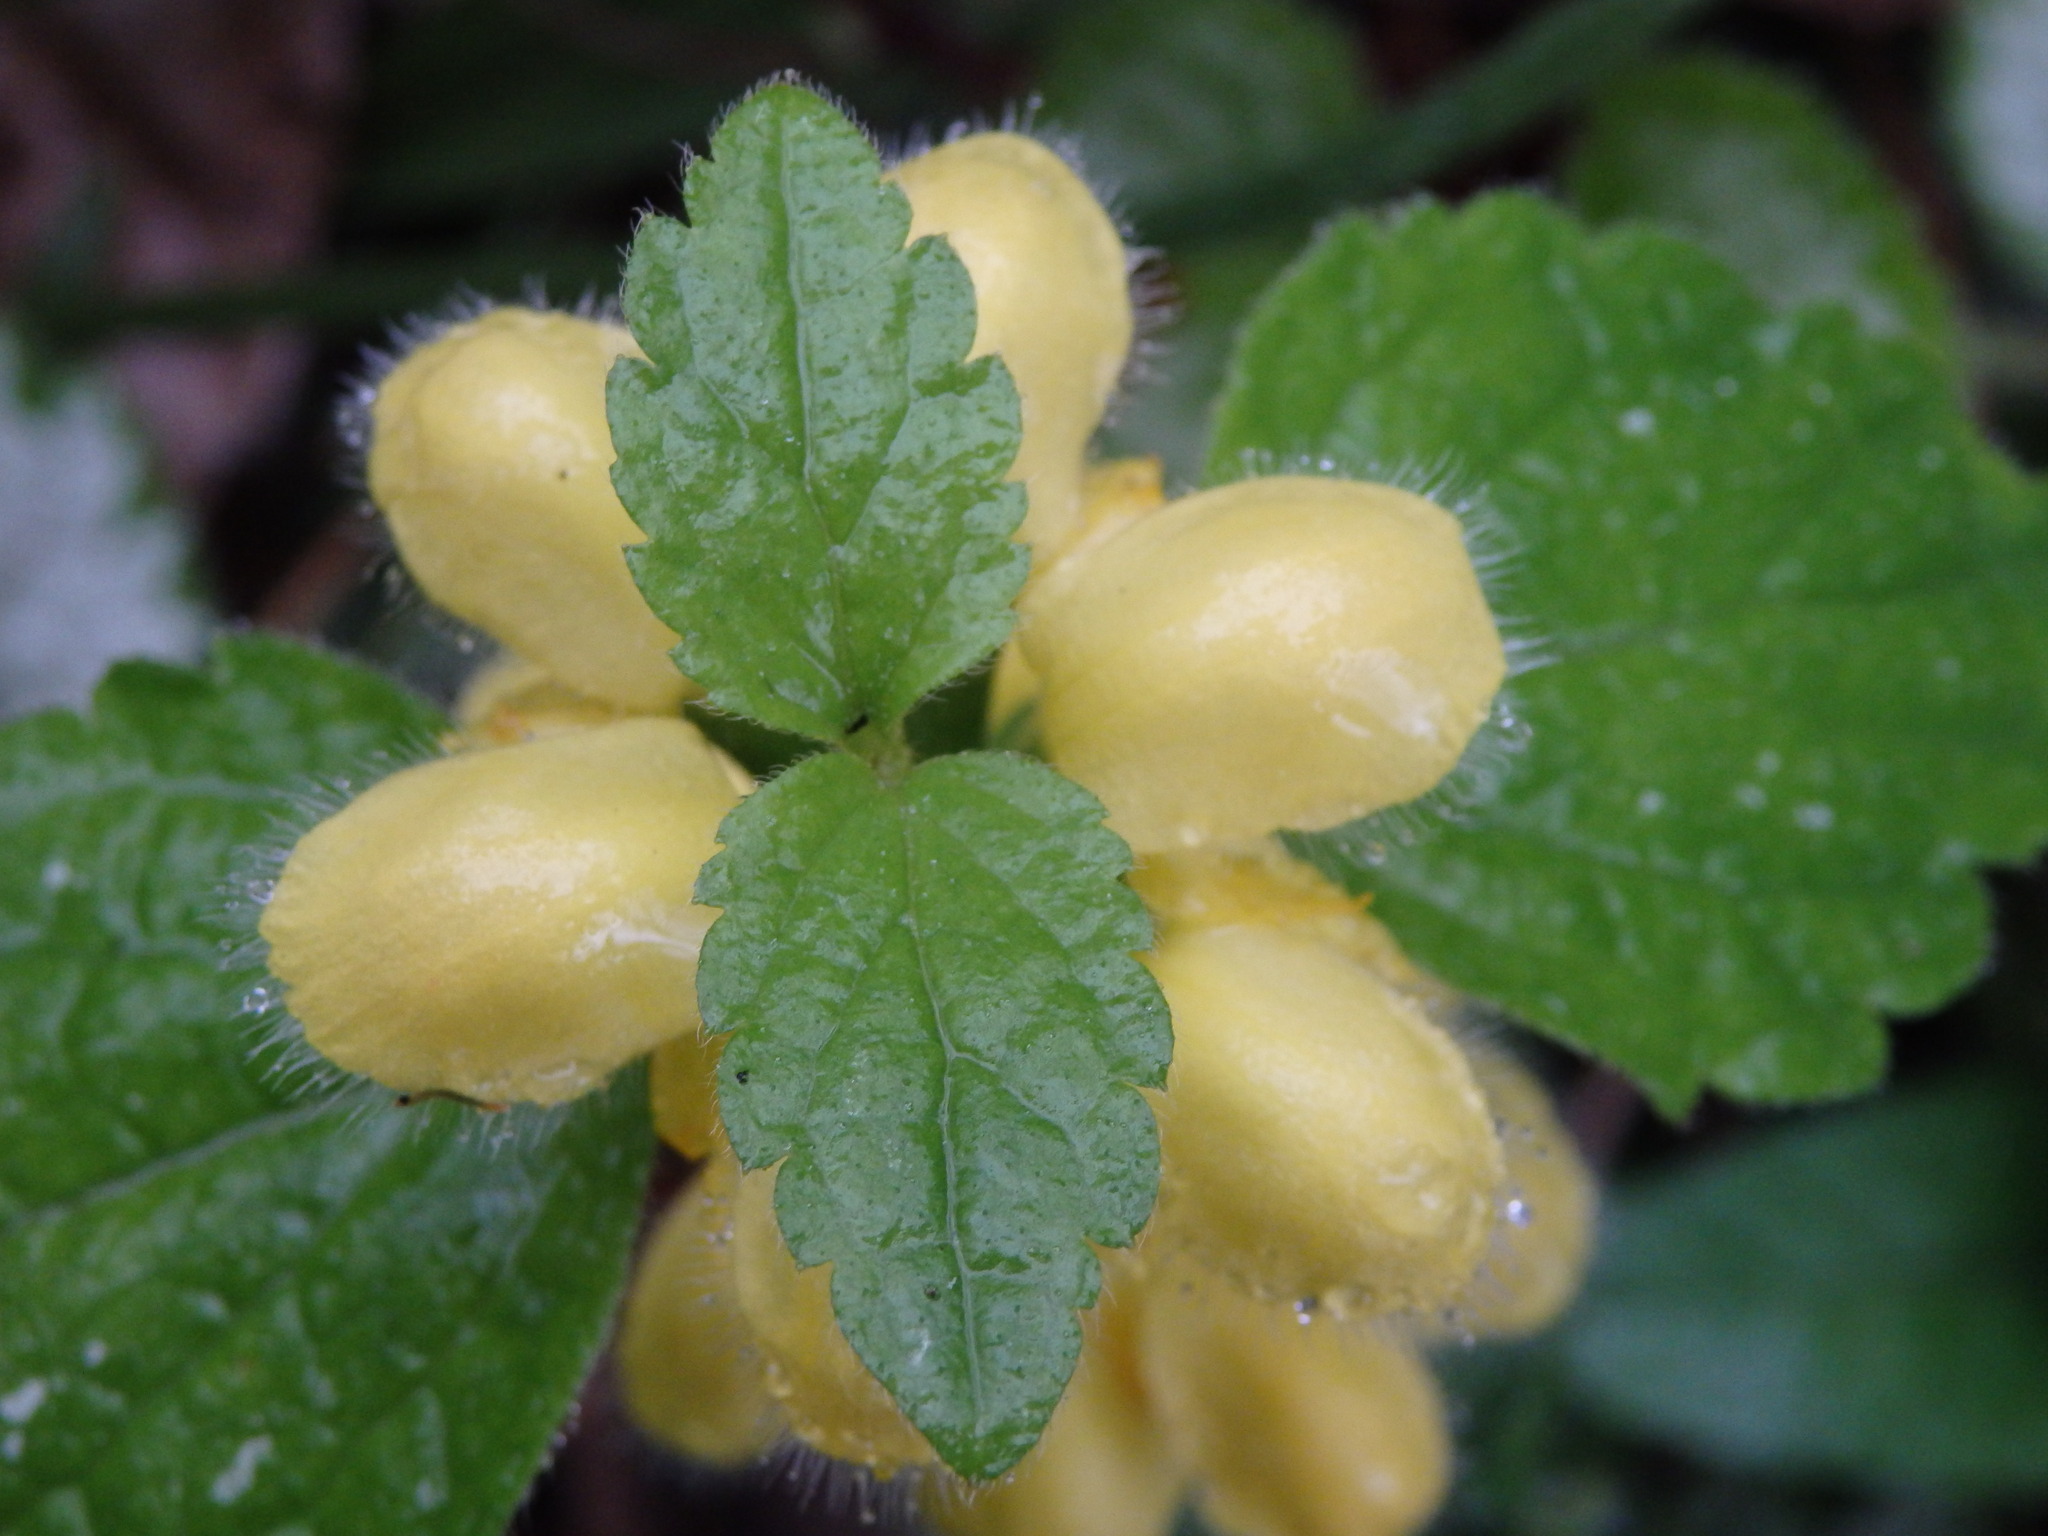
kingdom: Plantae
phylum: Tracheophyta
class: Magnoliopsida
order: Lamiales
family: Lamiaceae
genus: Lamium
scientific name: Lamium galeobdolon
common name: Yellow archangel
